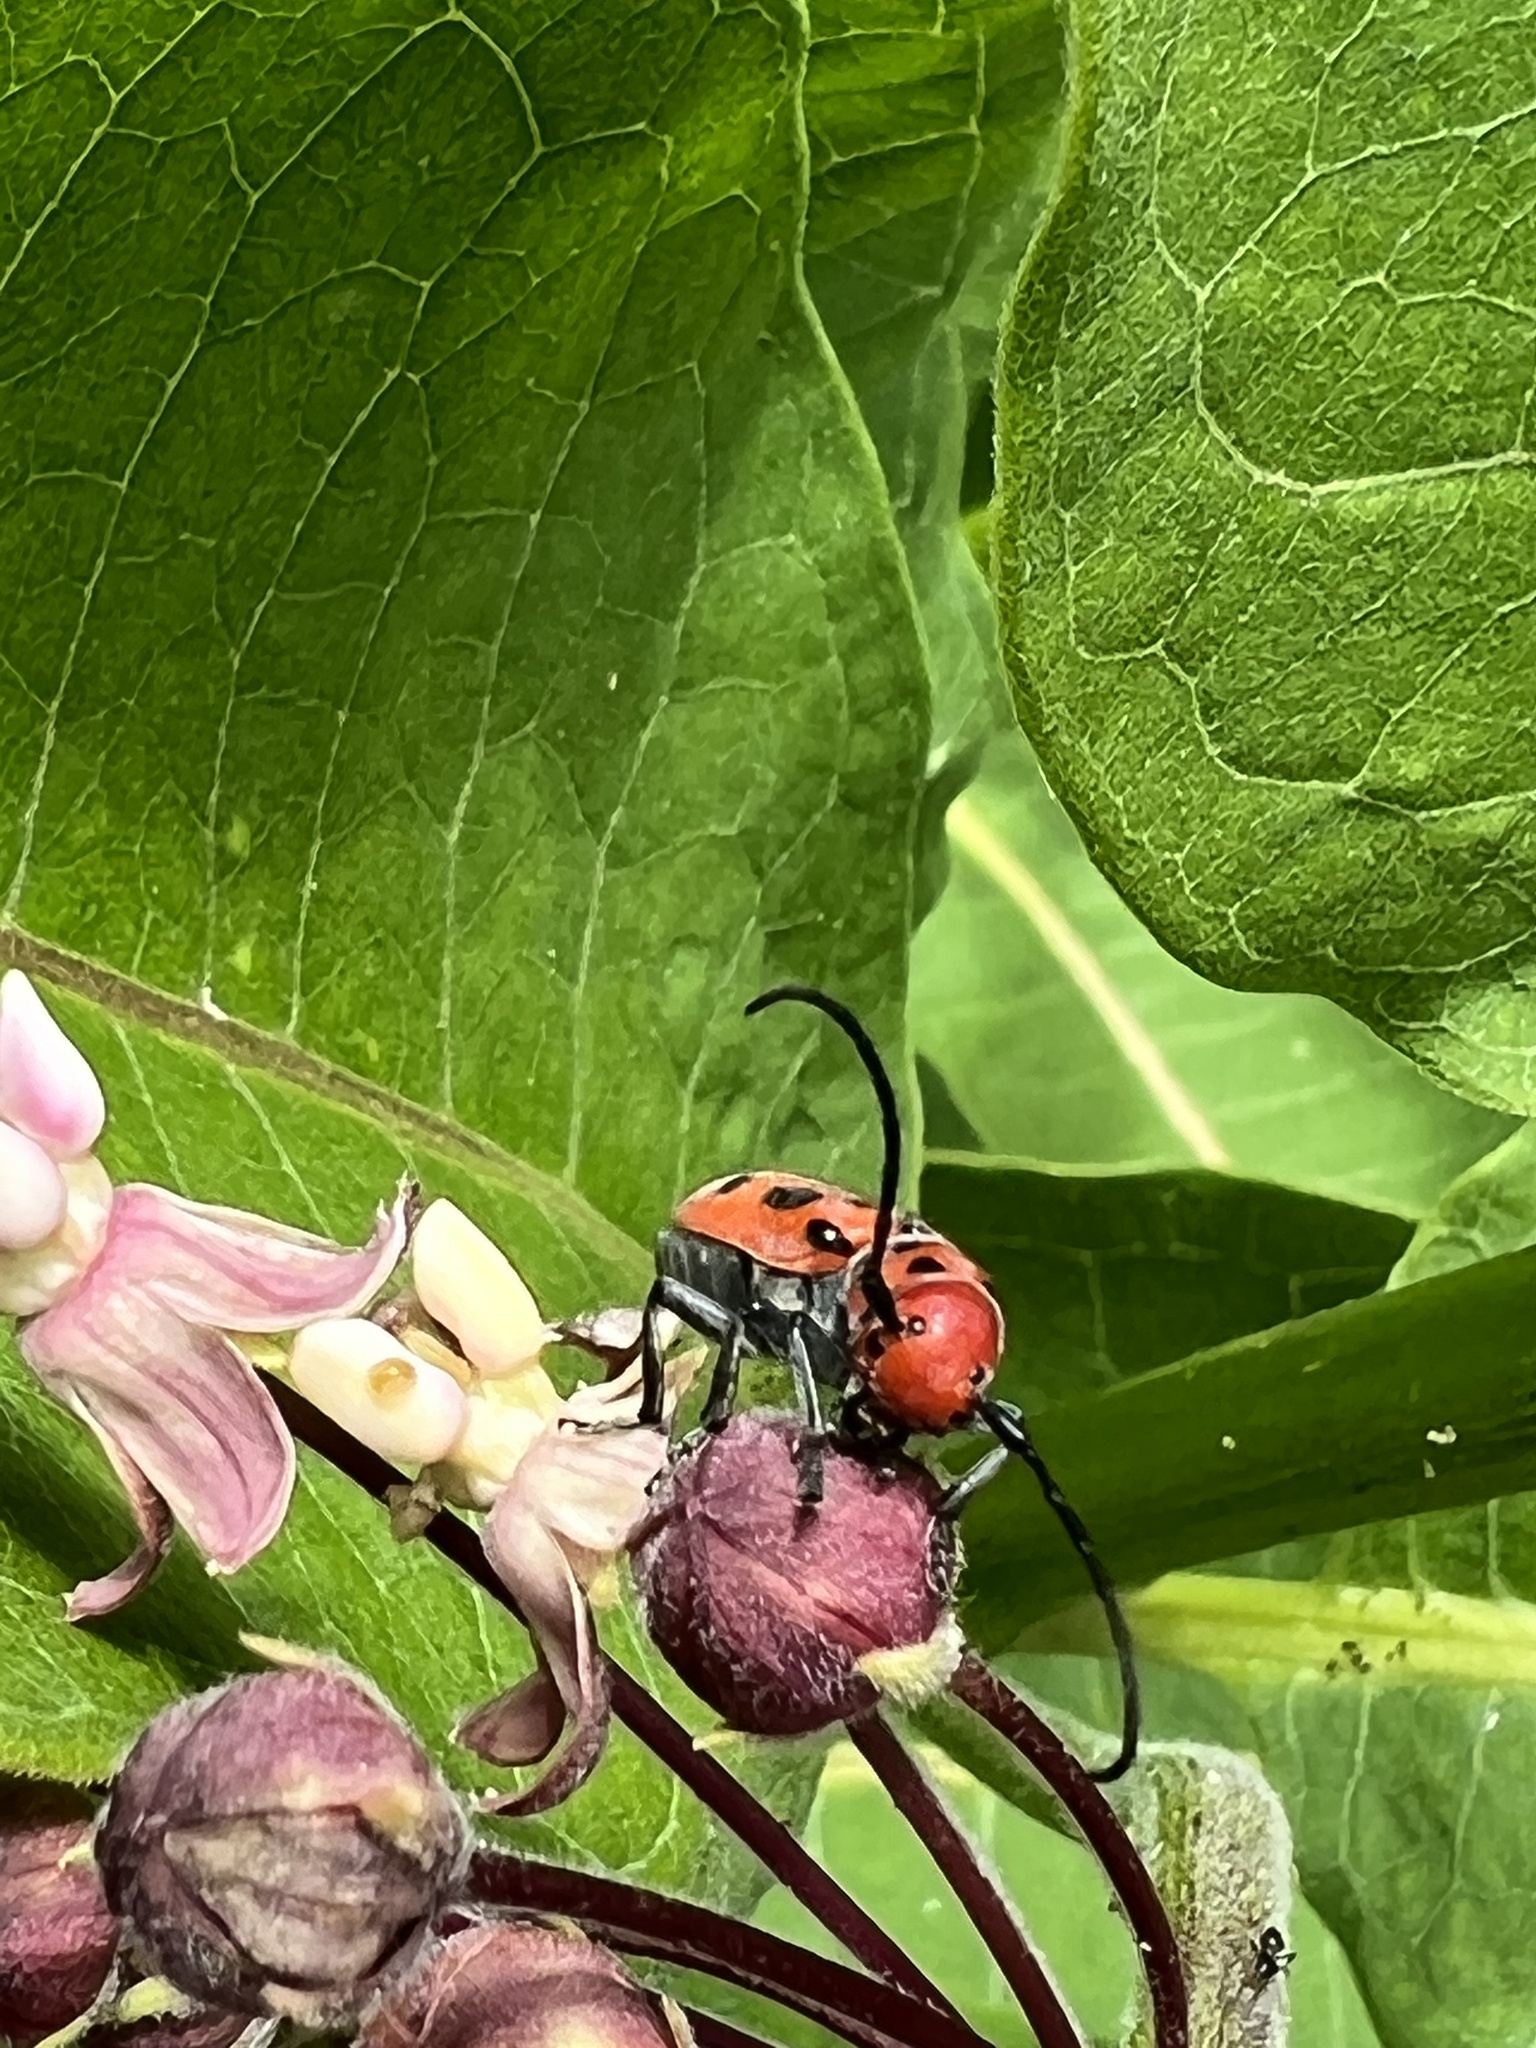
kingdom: Animalia
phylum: Arthropoda
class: Insecta
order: Coleoptera
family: Cerambycidae
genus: Tetraopes
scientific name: Tetraopes tetrophthalmus
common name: Red milkweed beetle
